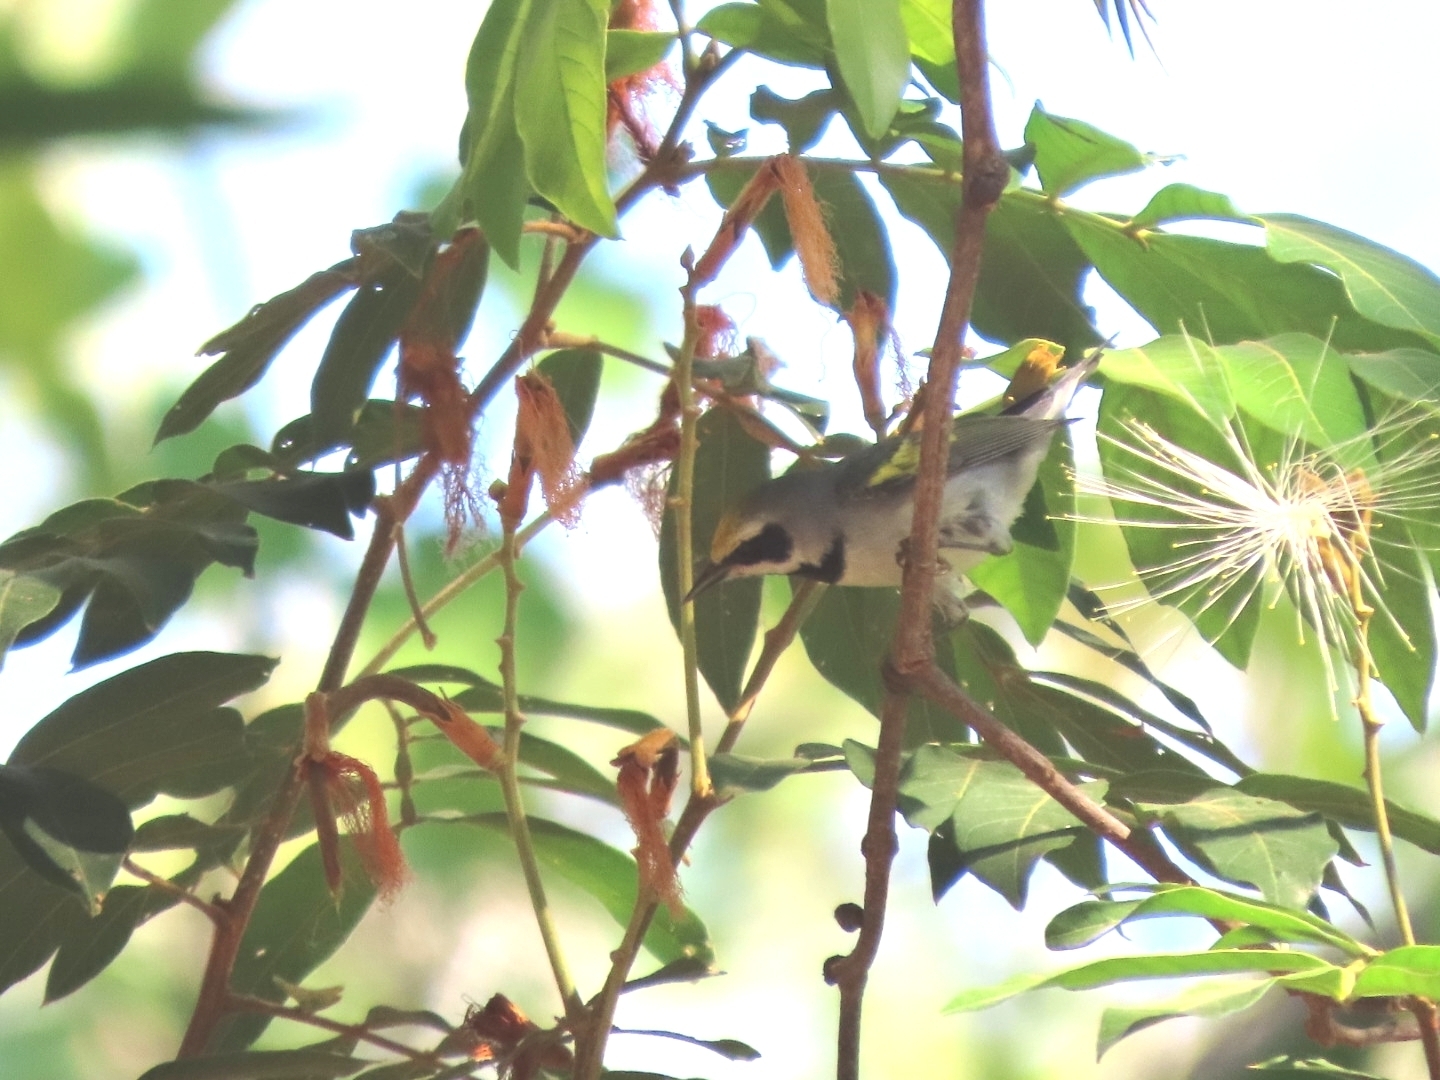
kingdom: Animalia
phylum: Chordata
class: Aves
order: Passeriformes
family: Parulidae
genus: Vermivora
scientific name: Vermivora chrysoptera
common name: Golden-winged warbler
